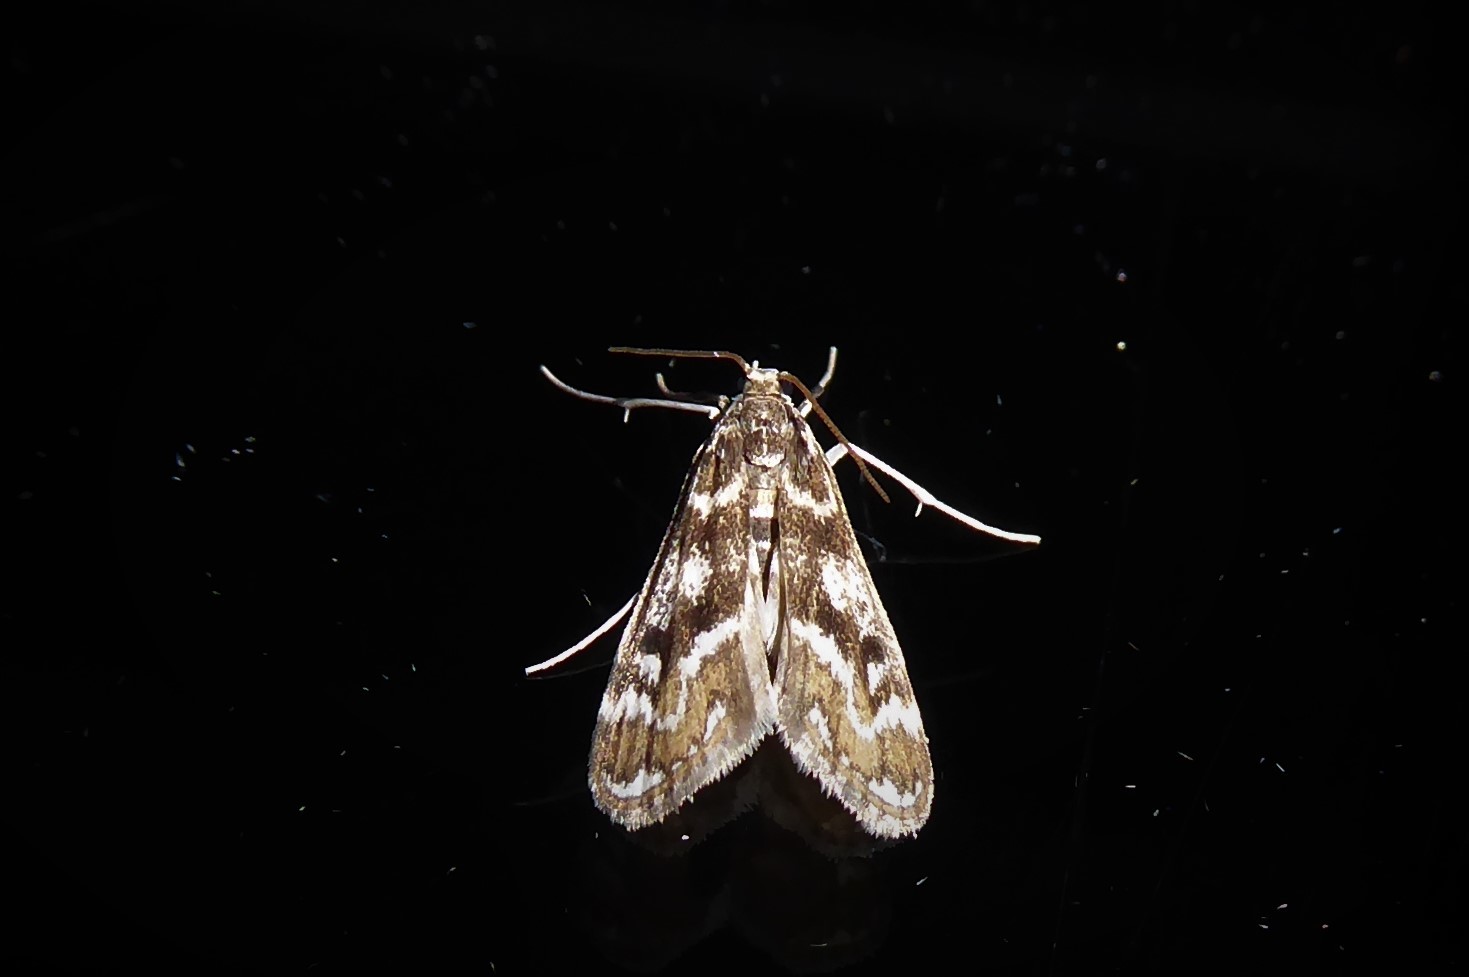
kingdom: Animalia
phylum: Arthropoda
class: Insecta
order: Lepidoptera
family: Crambidae
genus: Hygraula
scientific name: Hygraula nitens
